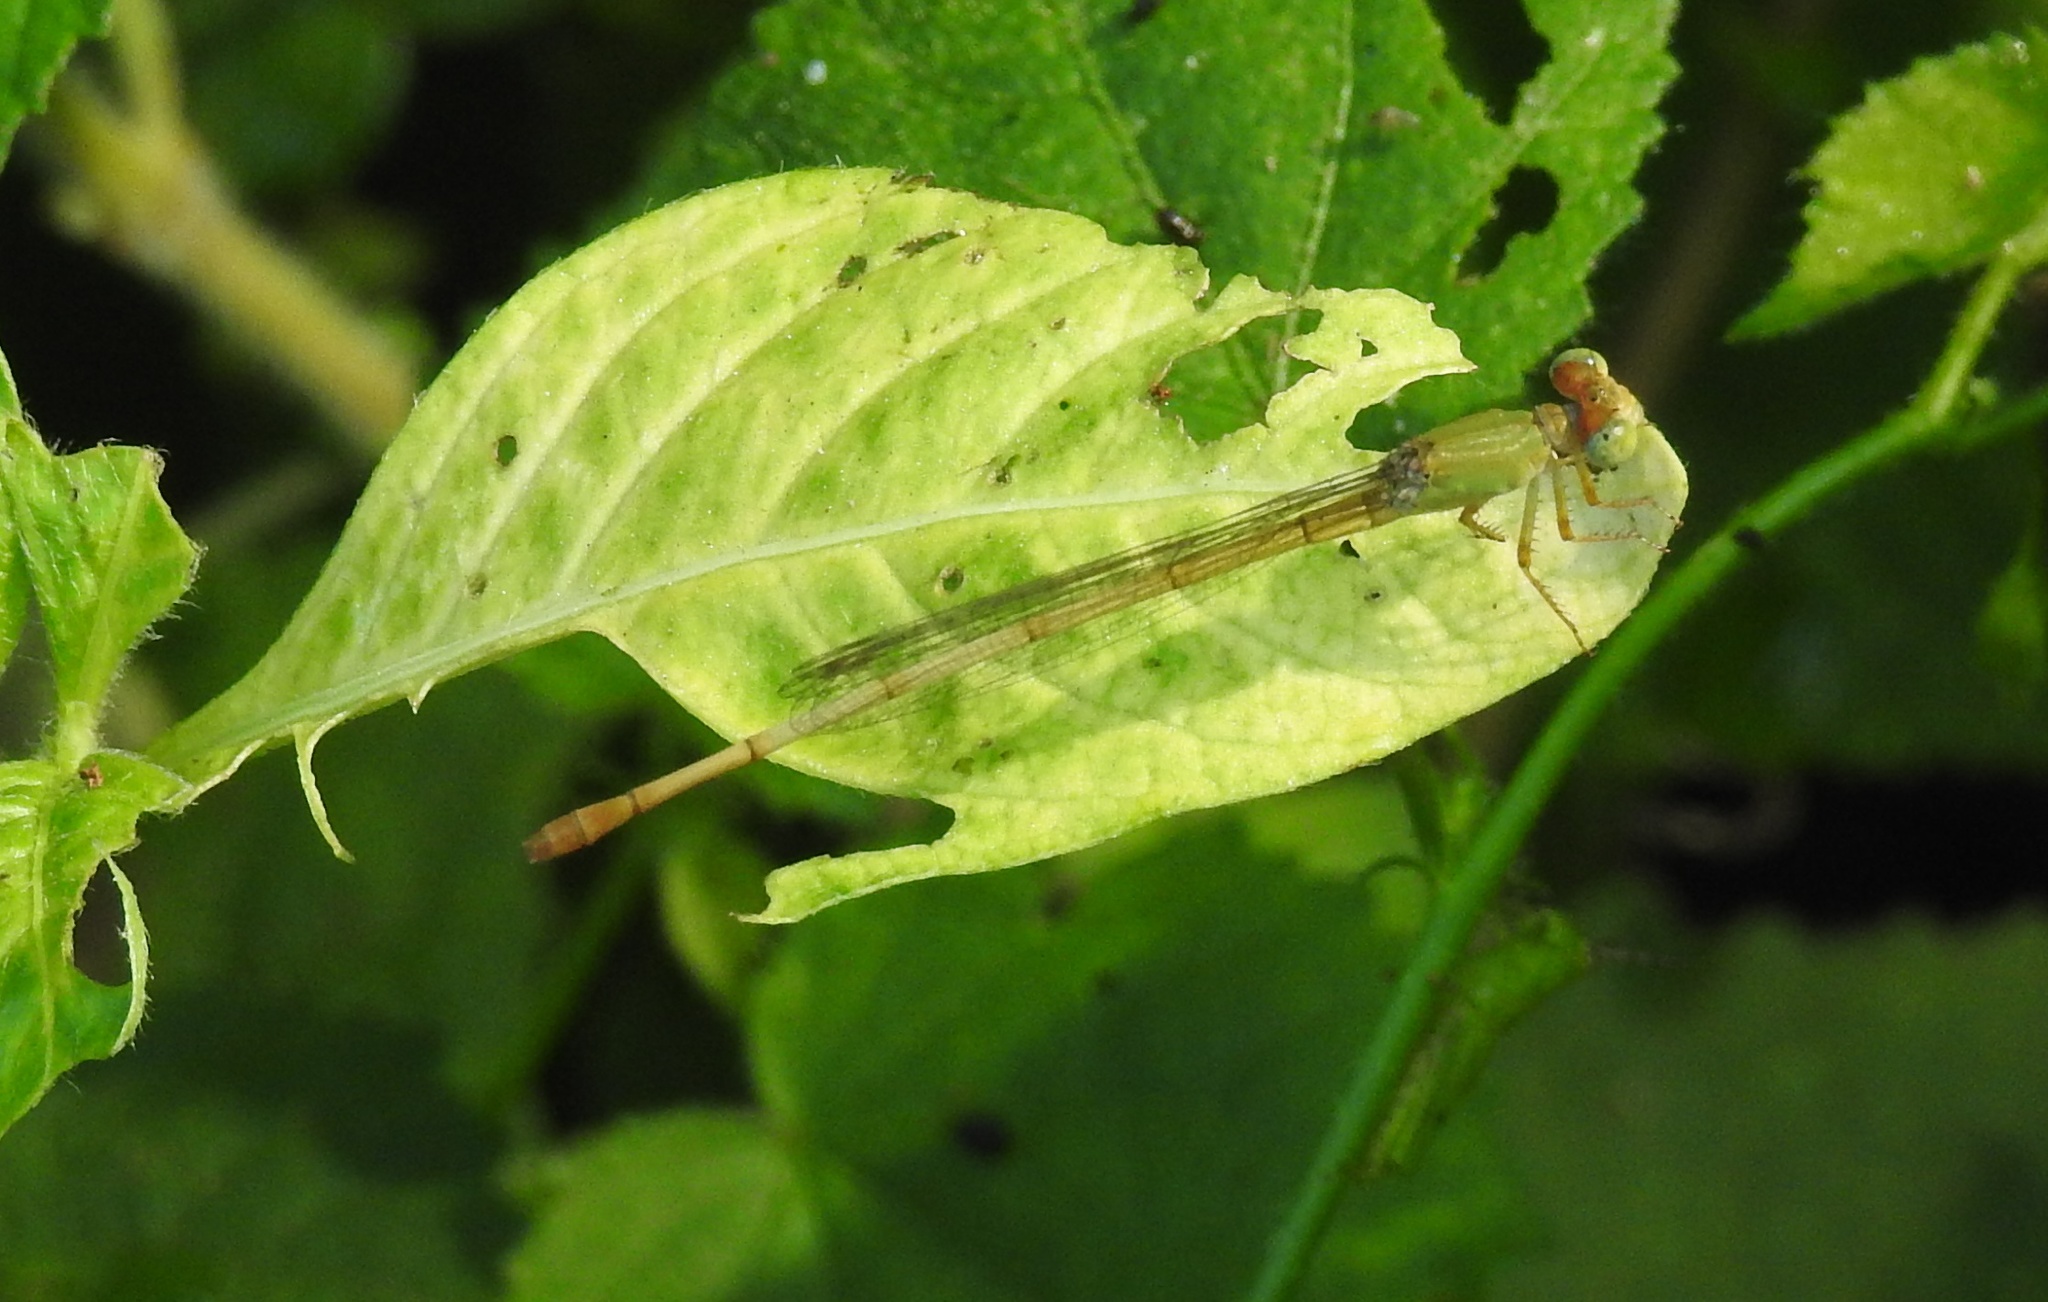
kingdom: Animalia
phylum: Arthropoda
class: Insecta
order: Odonata
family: Coenagrionidae
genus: Ceriagrion
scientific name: Ceriagrion coromandelianum
